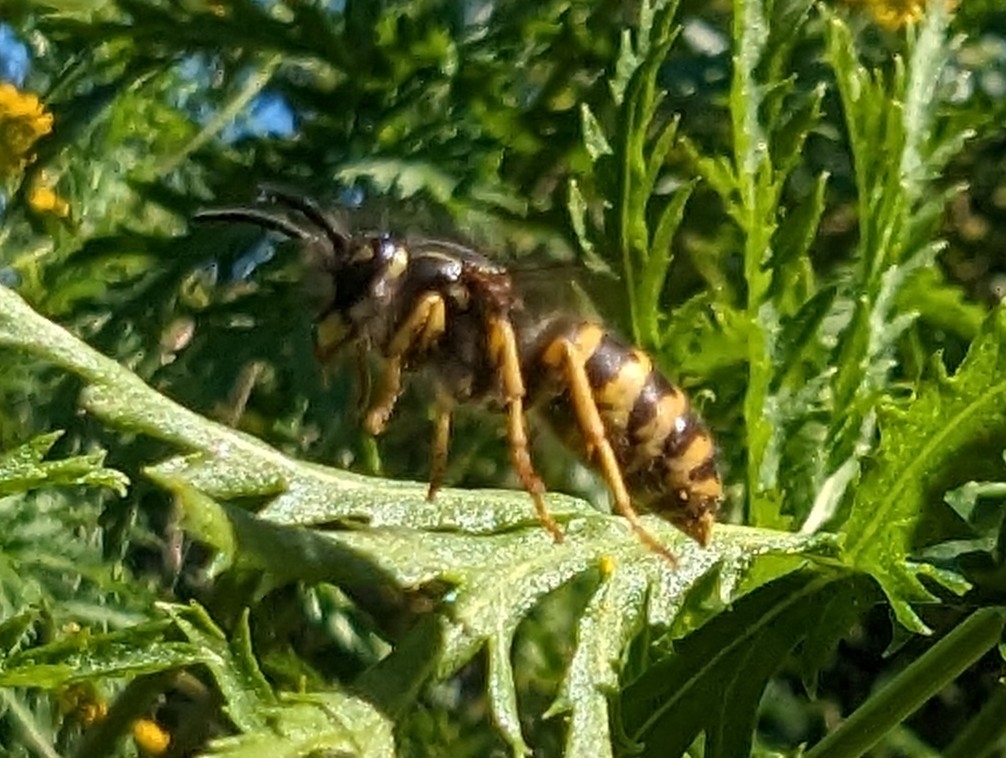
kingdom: Animalia
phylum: Arthropoda
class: Insecta
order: Hymenoptera
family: Vespidae
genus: Vespula
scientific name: Vespula alascensis
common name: Alaska yellowjacket
